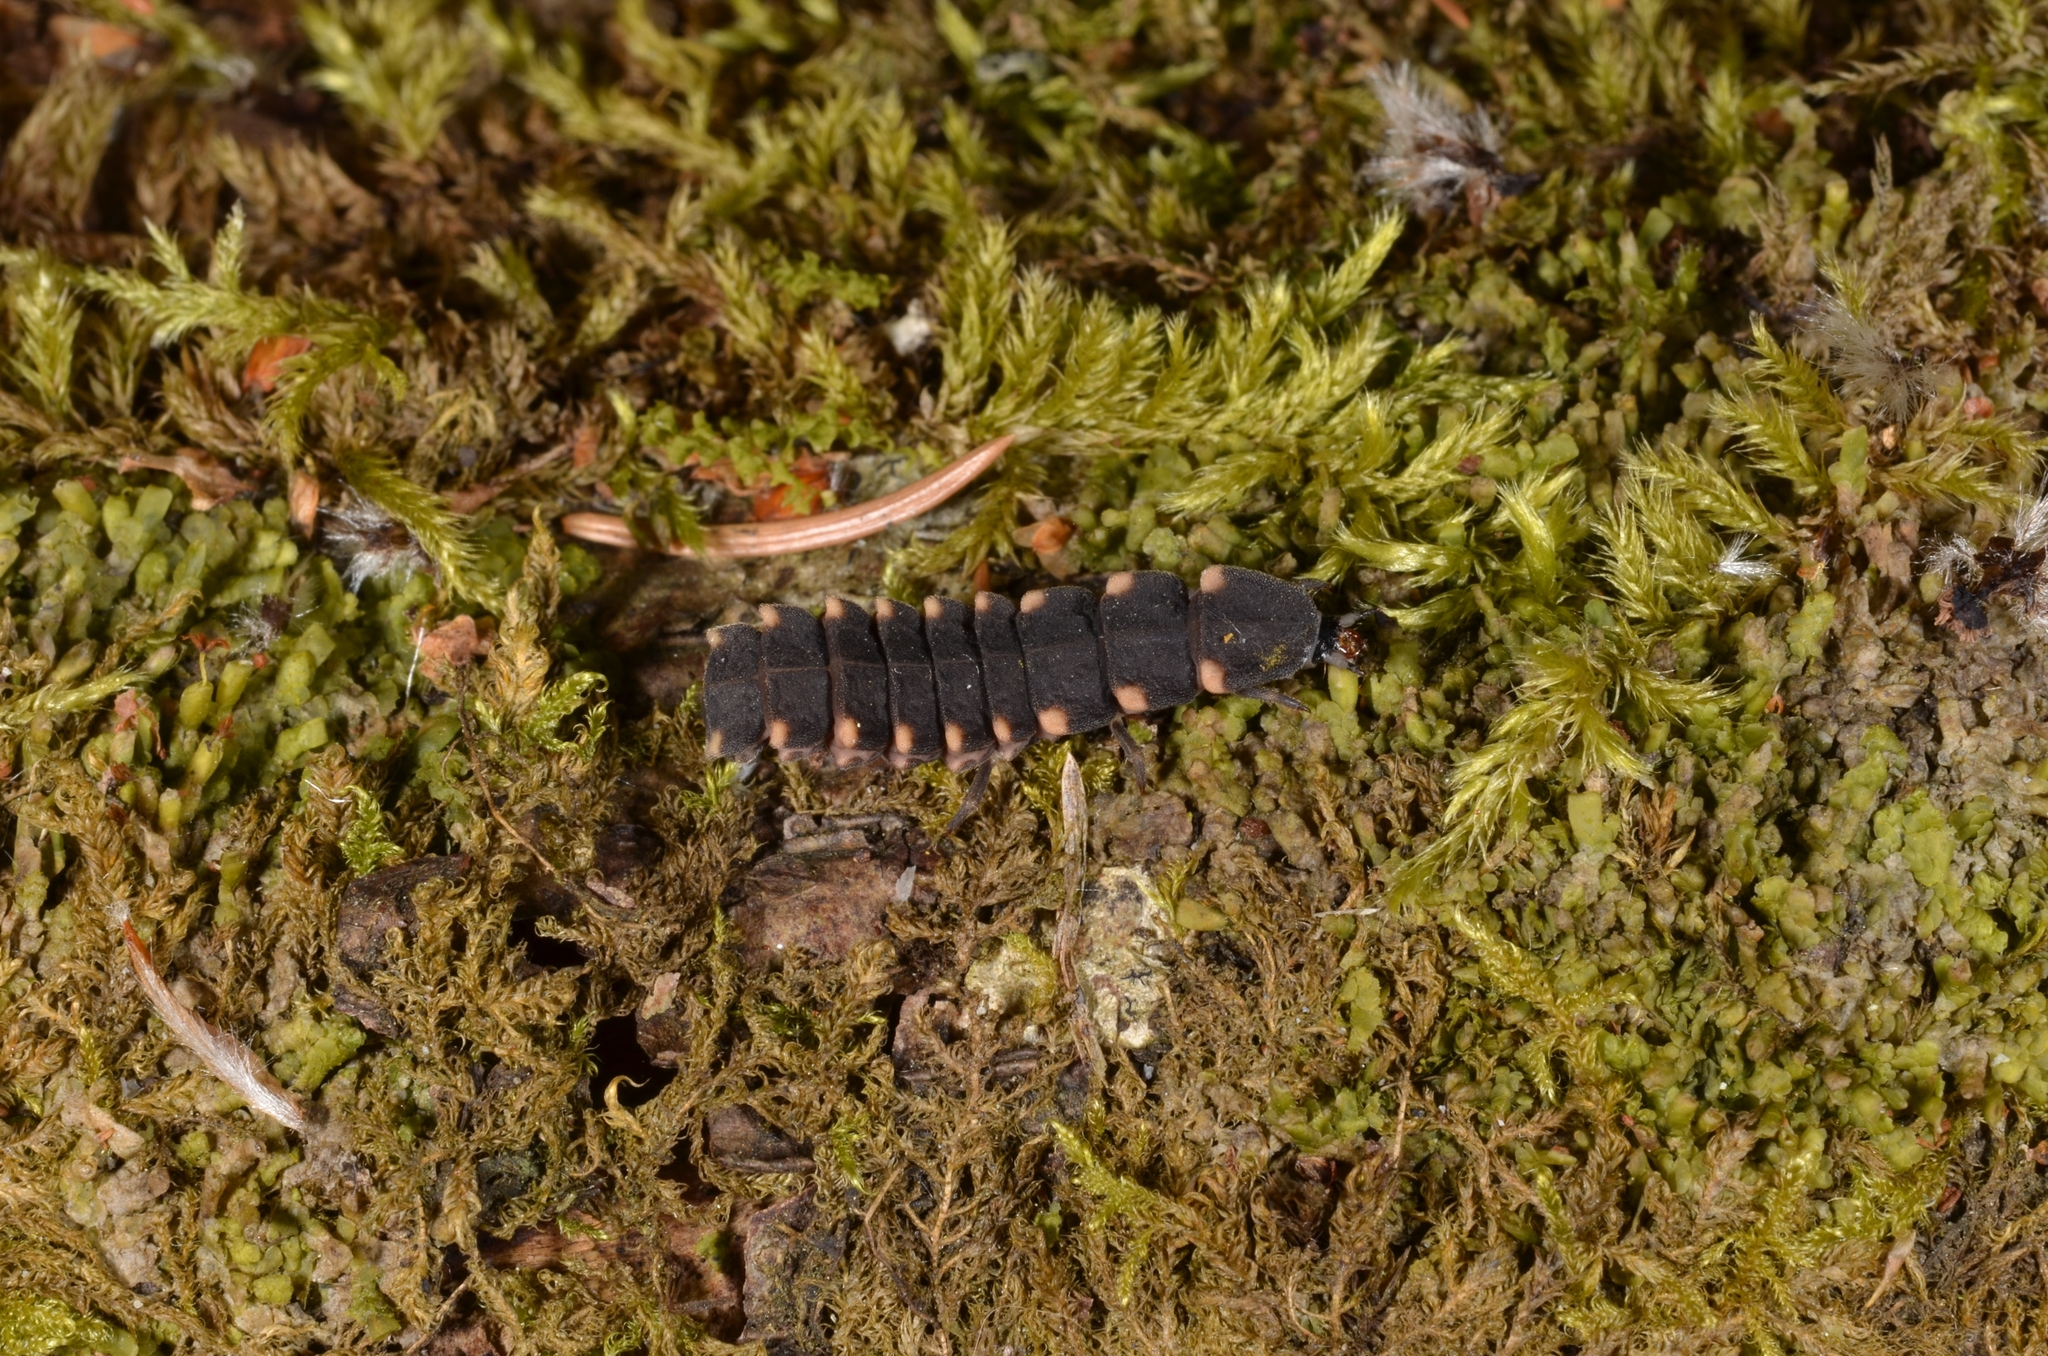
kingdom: Animalia
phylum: Arthropoda
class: Insecta
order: Coleoptera
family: Lampyridae
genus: Lampyris
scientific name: Lampyris noctiluca
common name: Glow-worm
